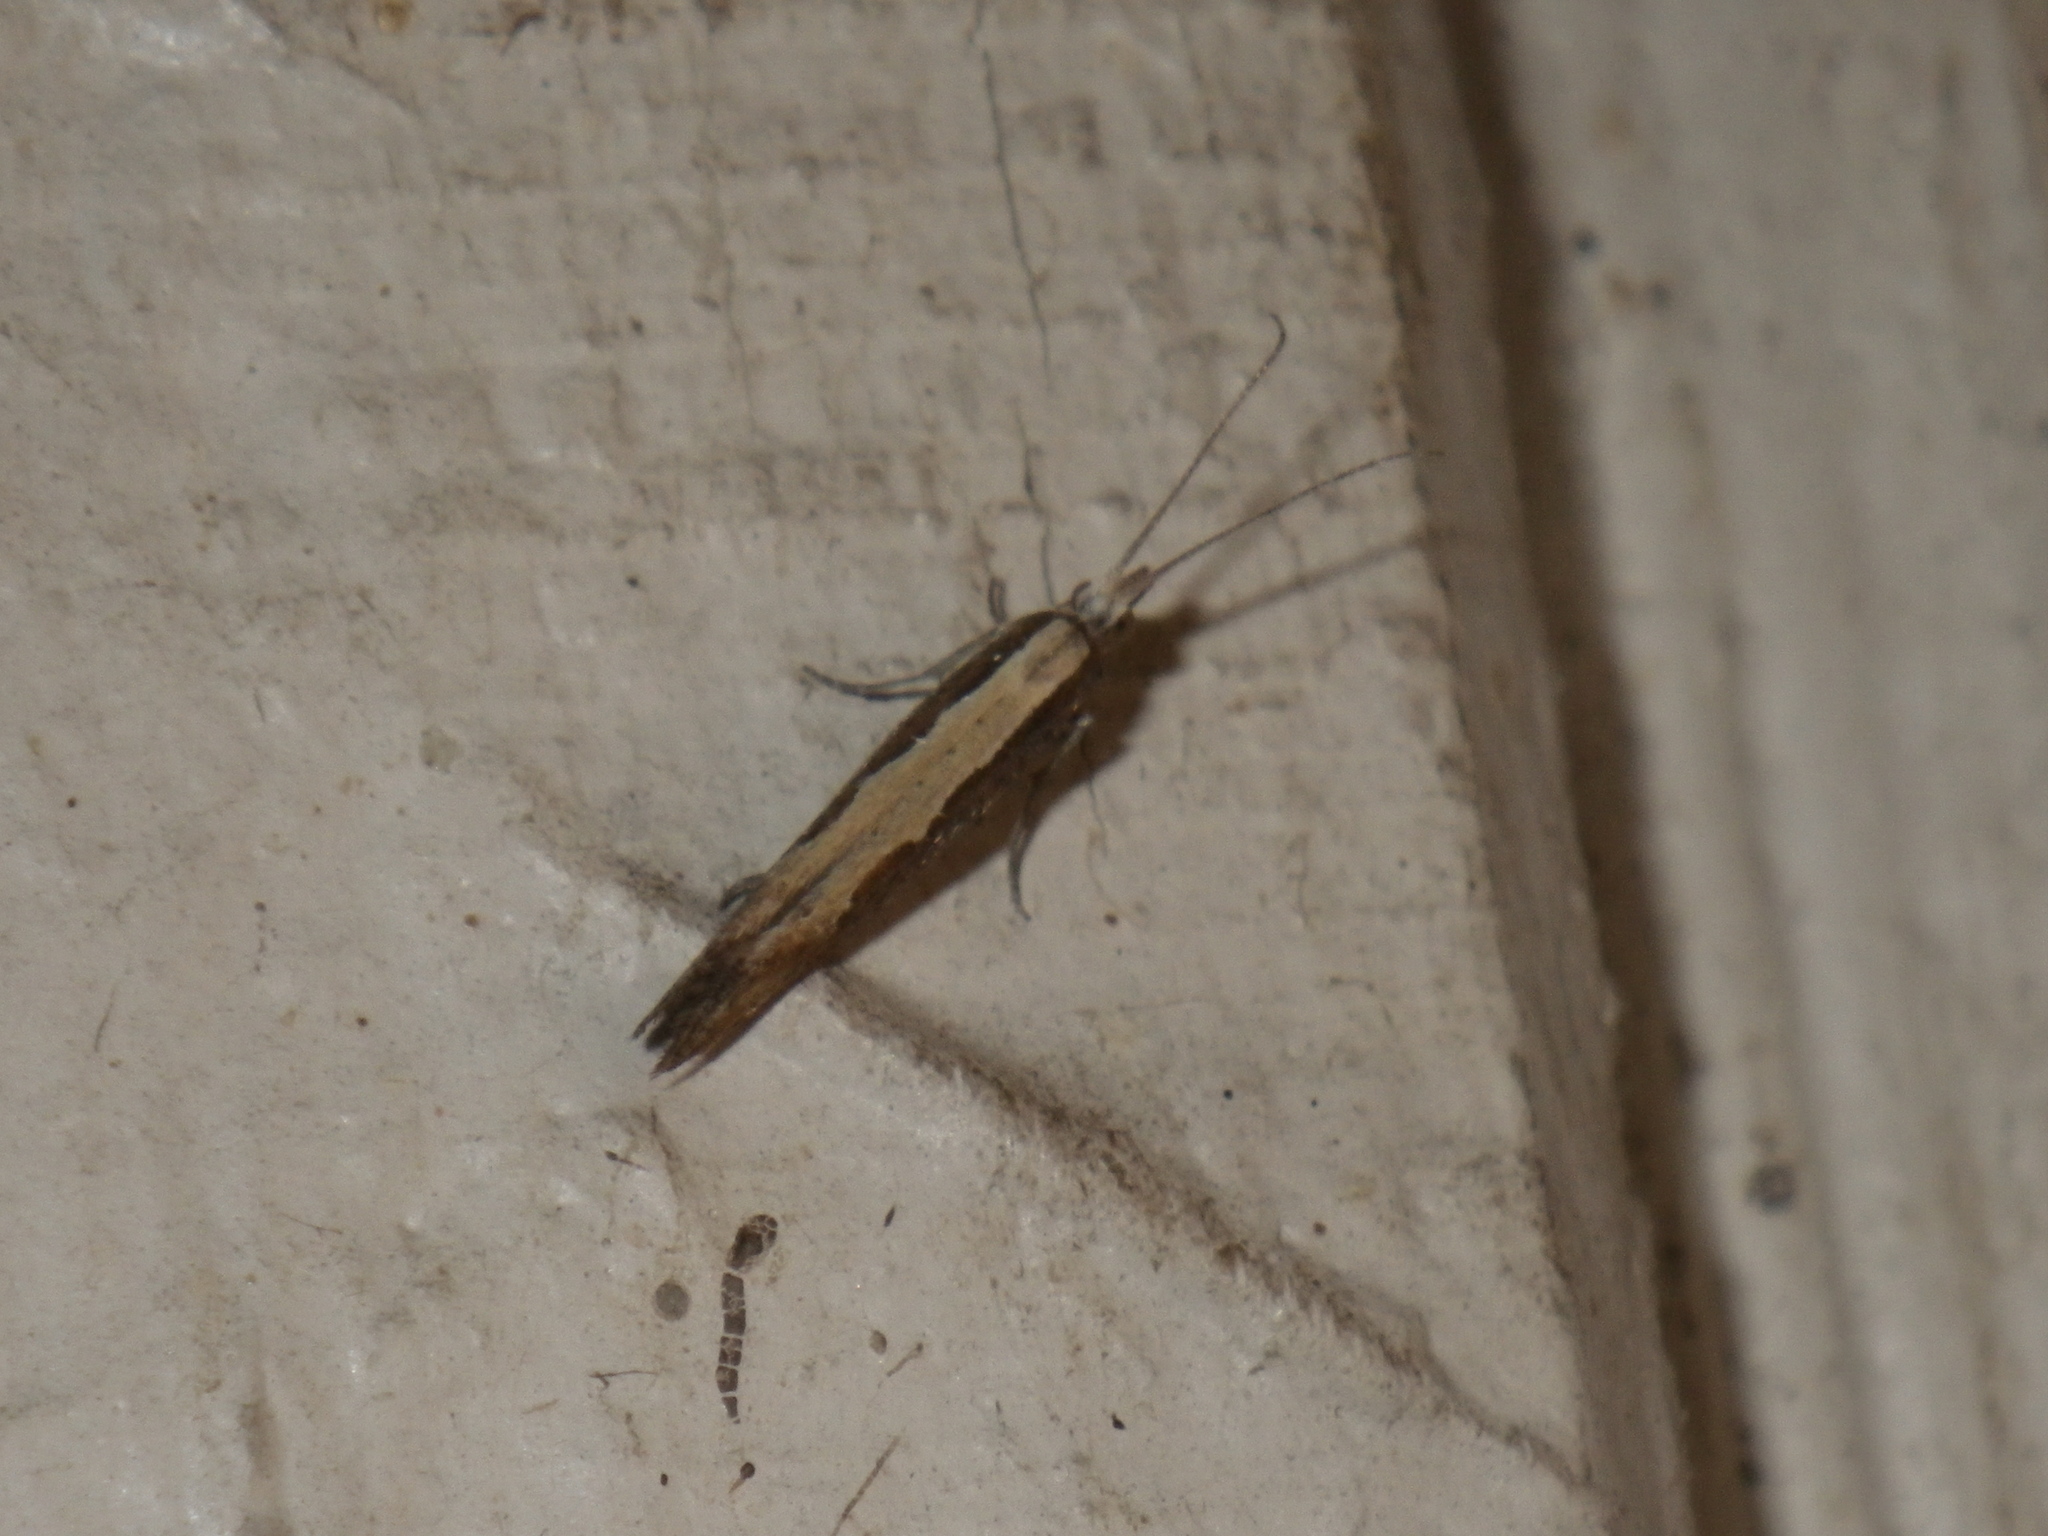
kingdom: Animalia
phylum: Arthropoda
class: Insecta
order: Lepidoptera
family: Plutellidae
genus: Plutella
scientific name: Plutella xylostella
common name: Diamond-back moth
